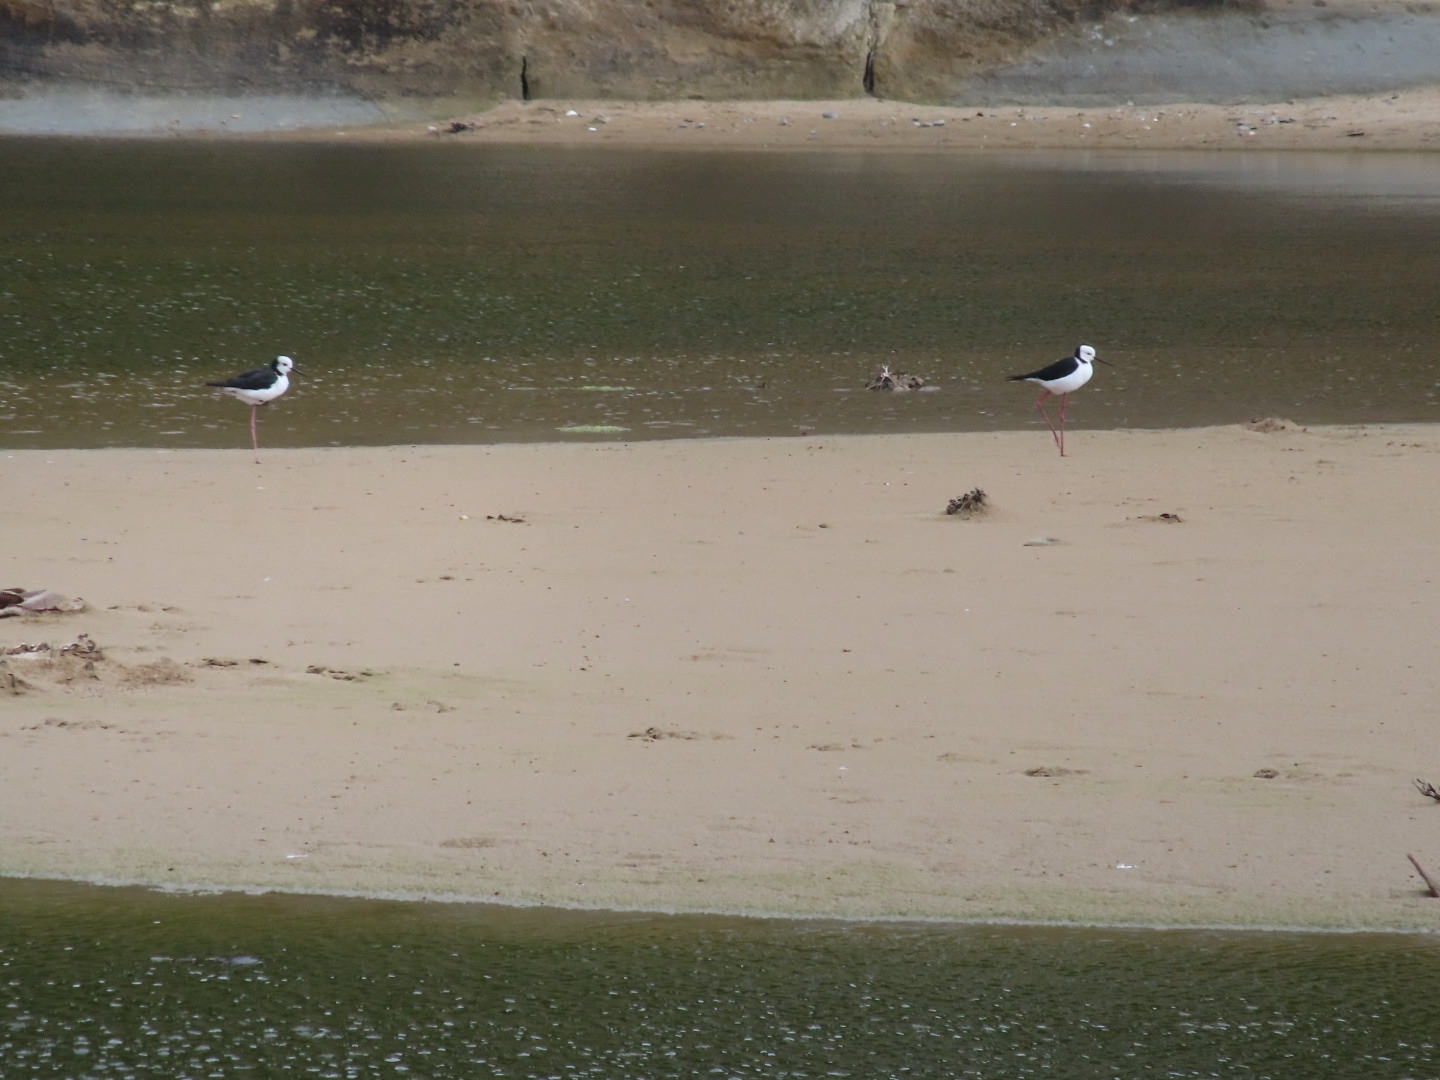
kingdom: Animalia
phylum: Chordata
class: Aves
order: Charadriiformes
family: Recurvirostridae
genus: Himantopus
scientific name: Himantopus leucocephalus
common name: White-headed stilt
